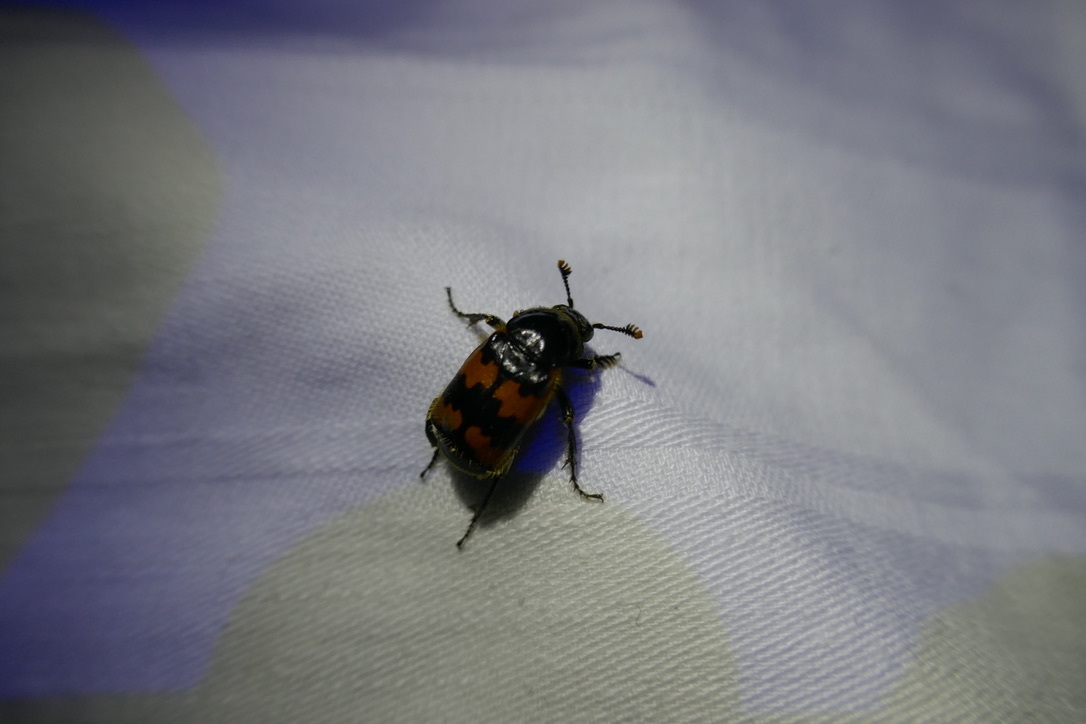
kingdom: Animalia
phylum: Arthropoda
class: Insecta
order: Coleoptera
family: Staphylinidae
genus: Nicrophorus
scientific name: Nicrophorus vespillo
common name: Common burying beetle
